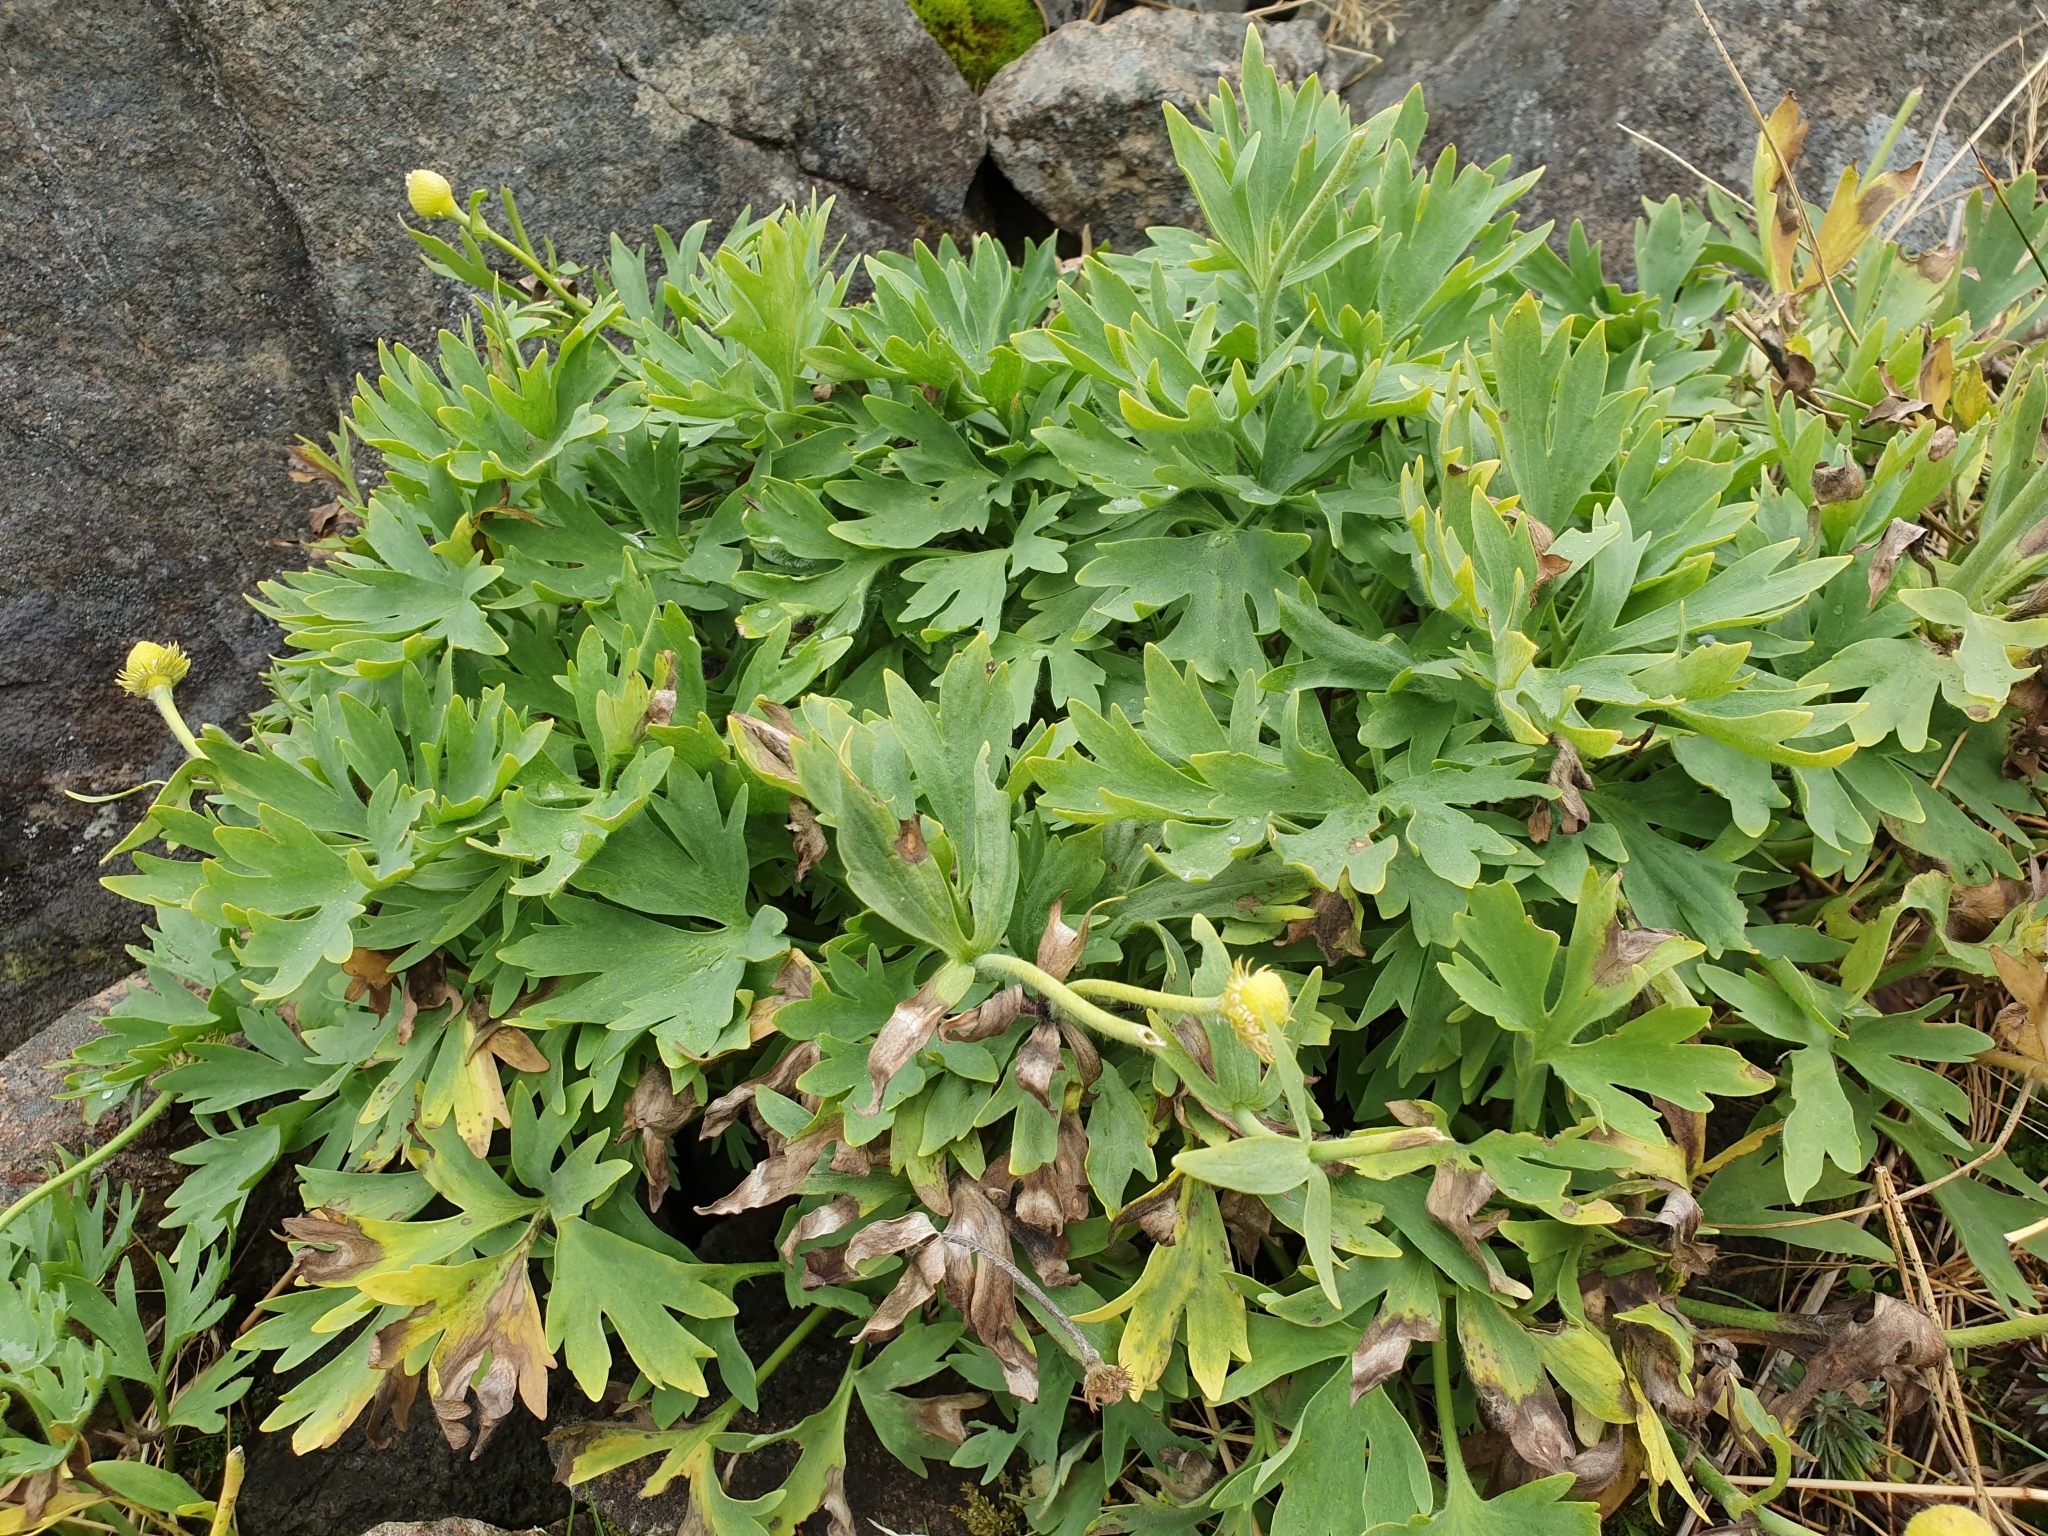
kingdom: Plantae
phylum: Tracheophyta
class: Magnoliopsida
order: Ranunculales
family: Ranunculaceae
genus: Ranunculus
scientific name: Ranunculus buchananii
